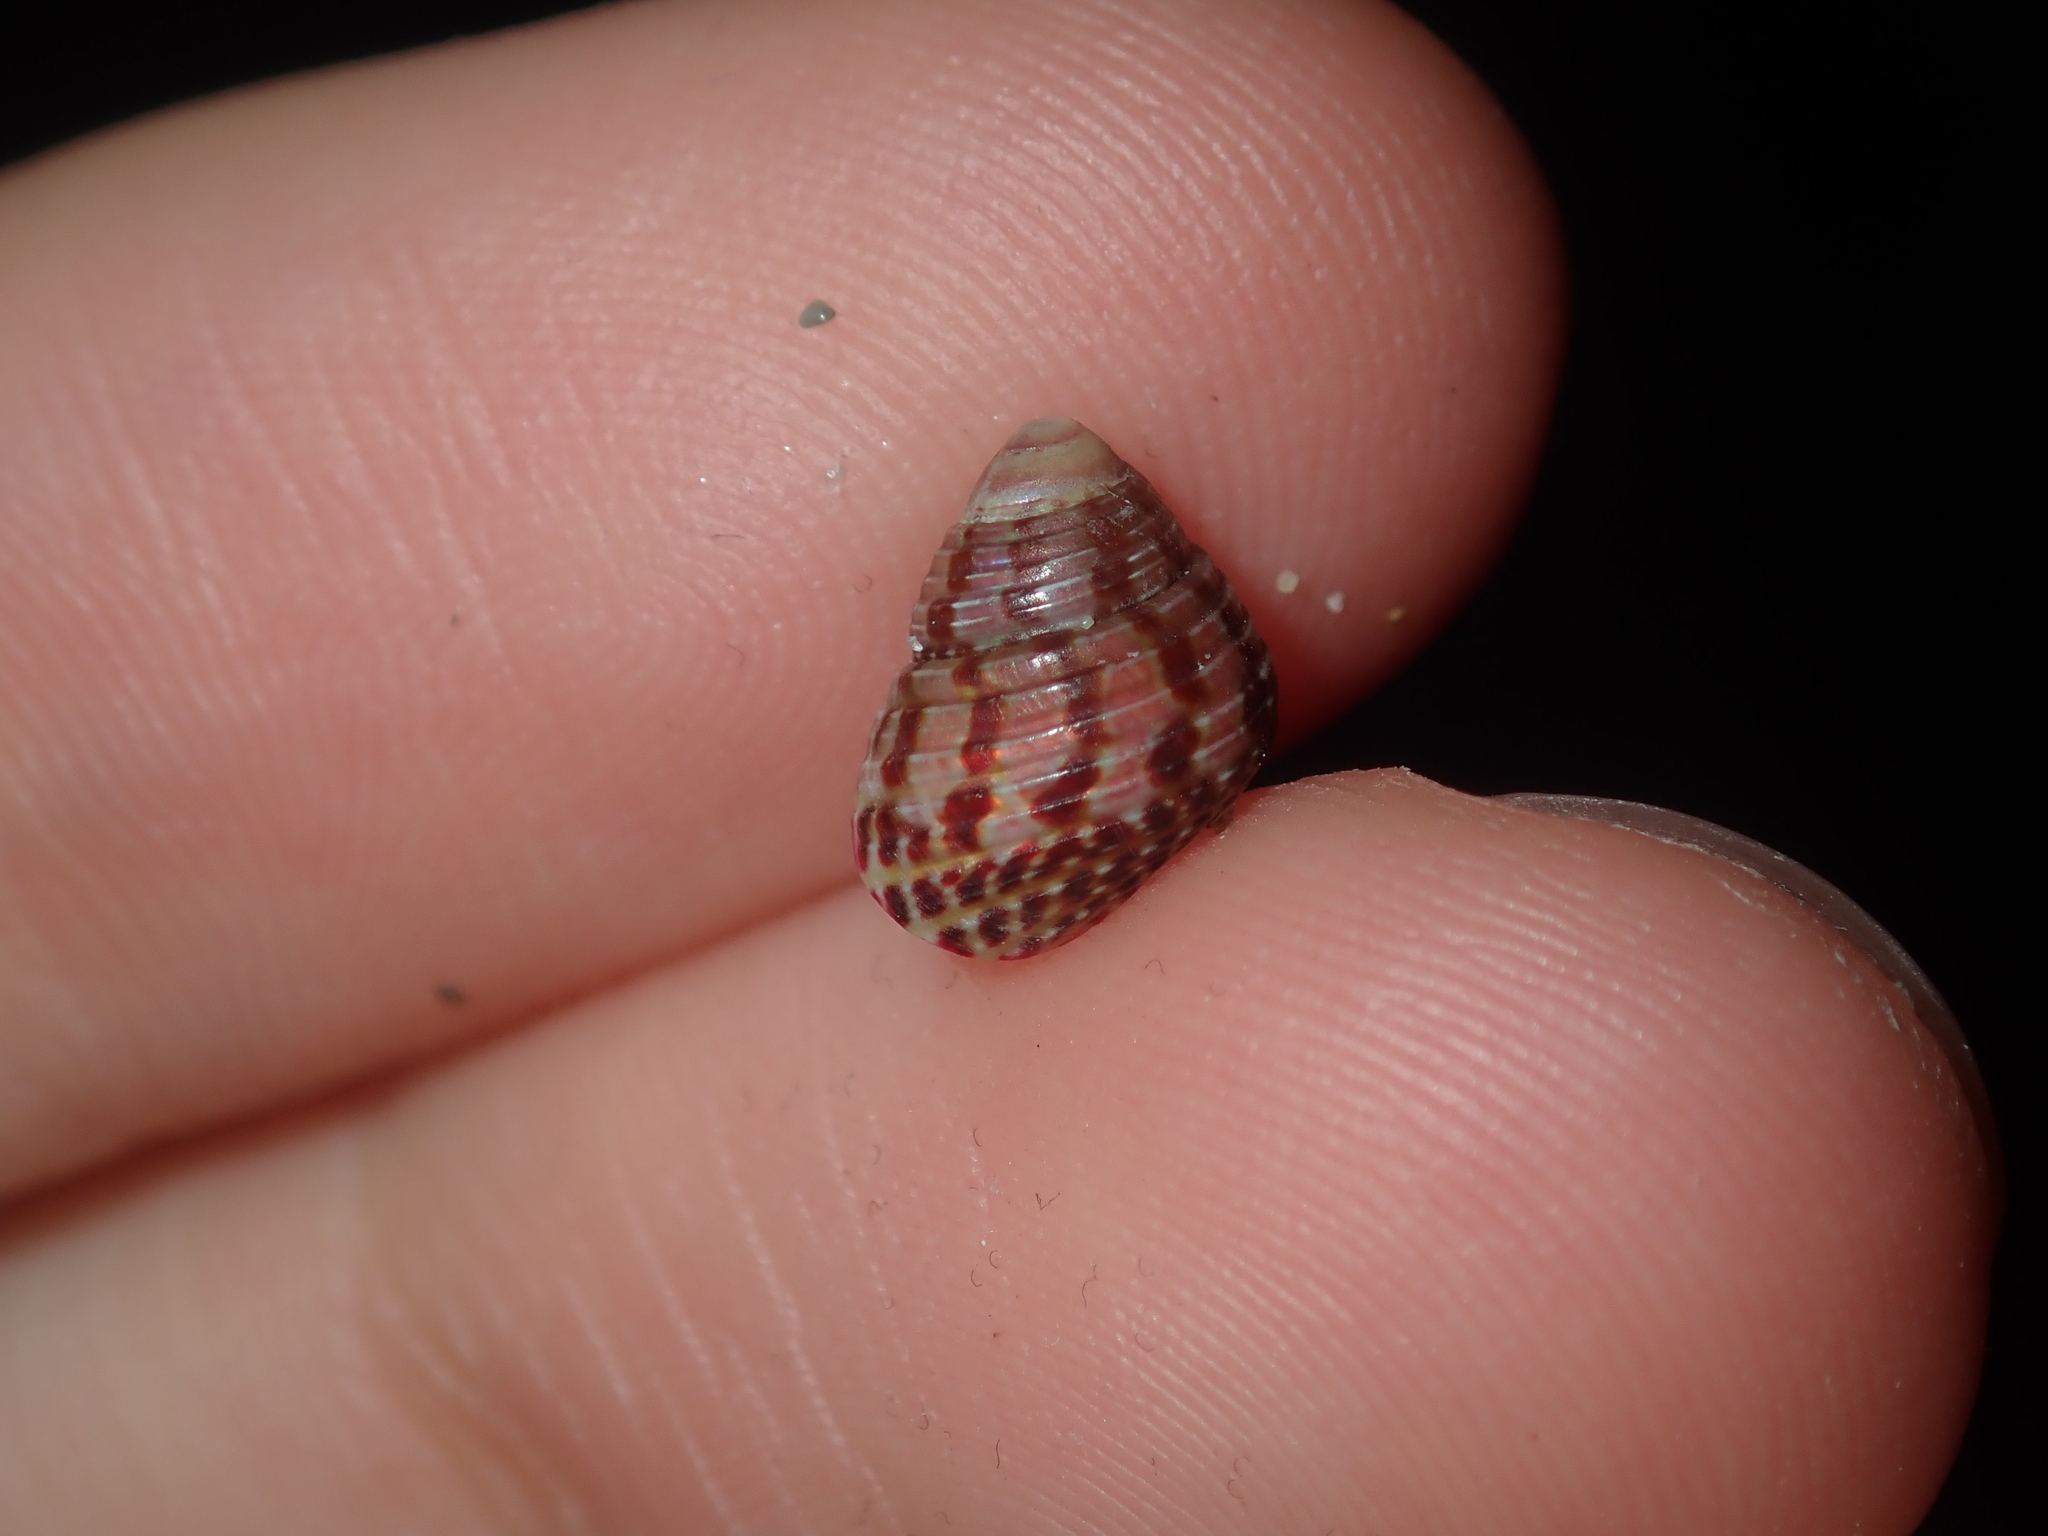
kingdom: Animalia
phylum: Mollusca
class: Gastropoda
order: Trochida
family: Trochidae
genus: Prothalotia
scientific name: Prothalotia pulcherrima
